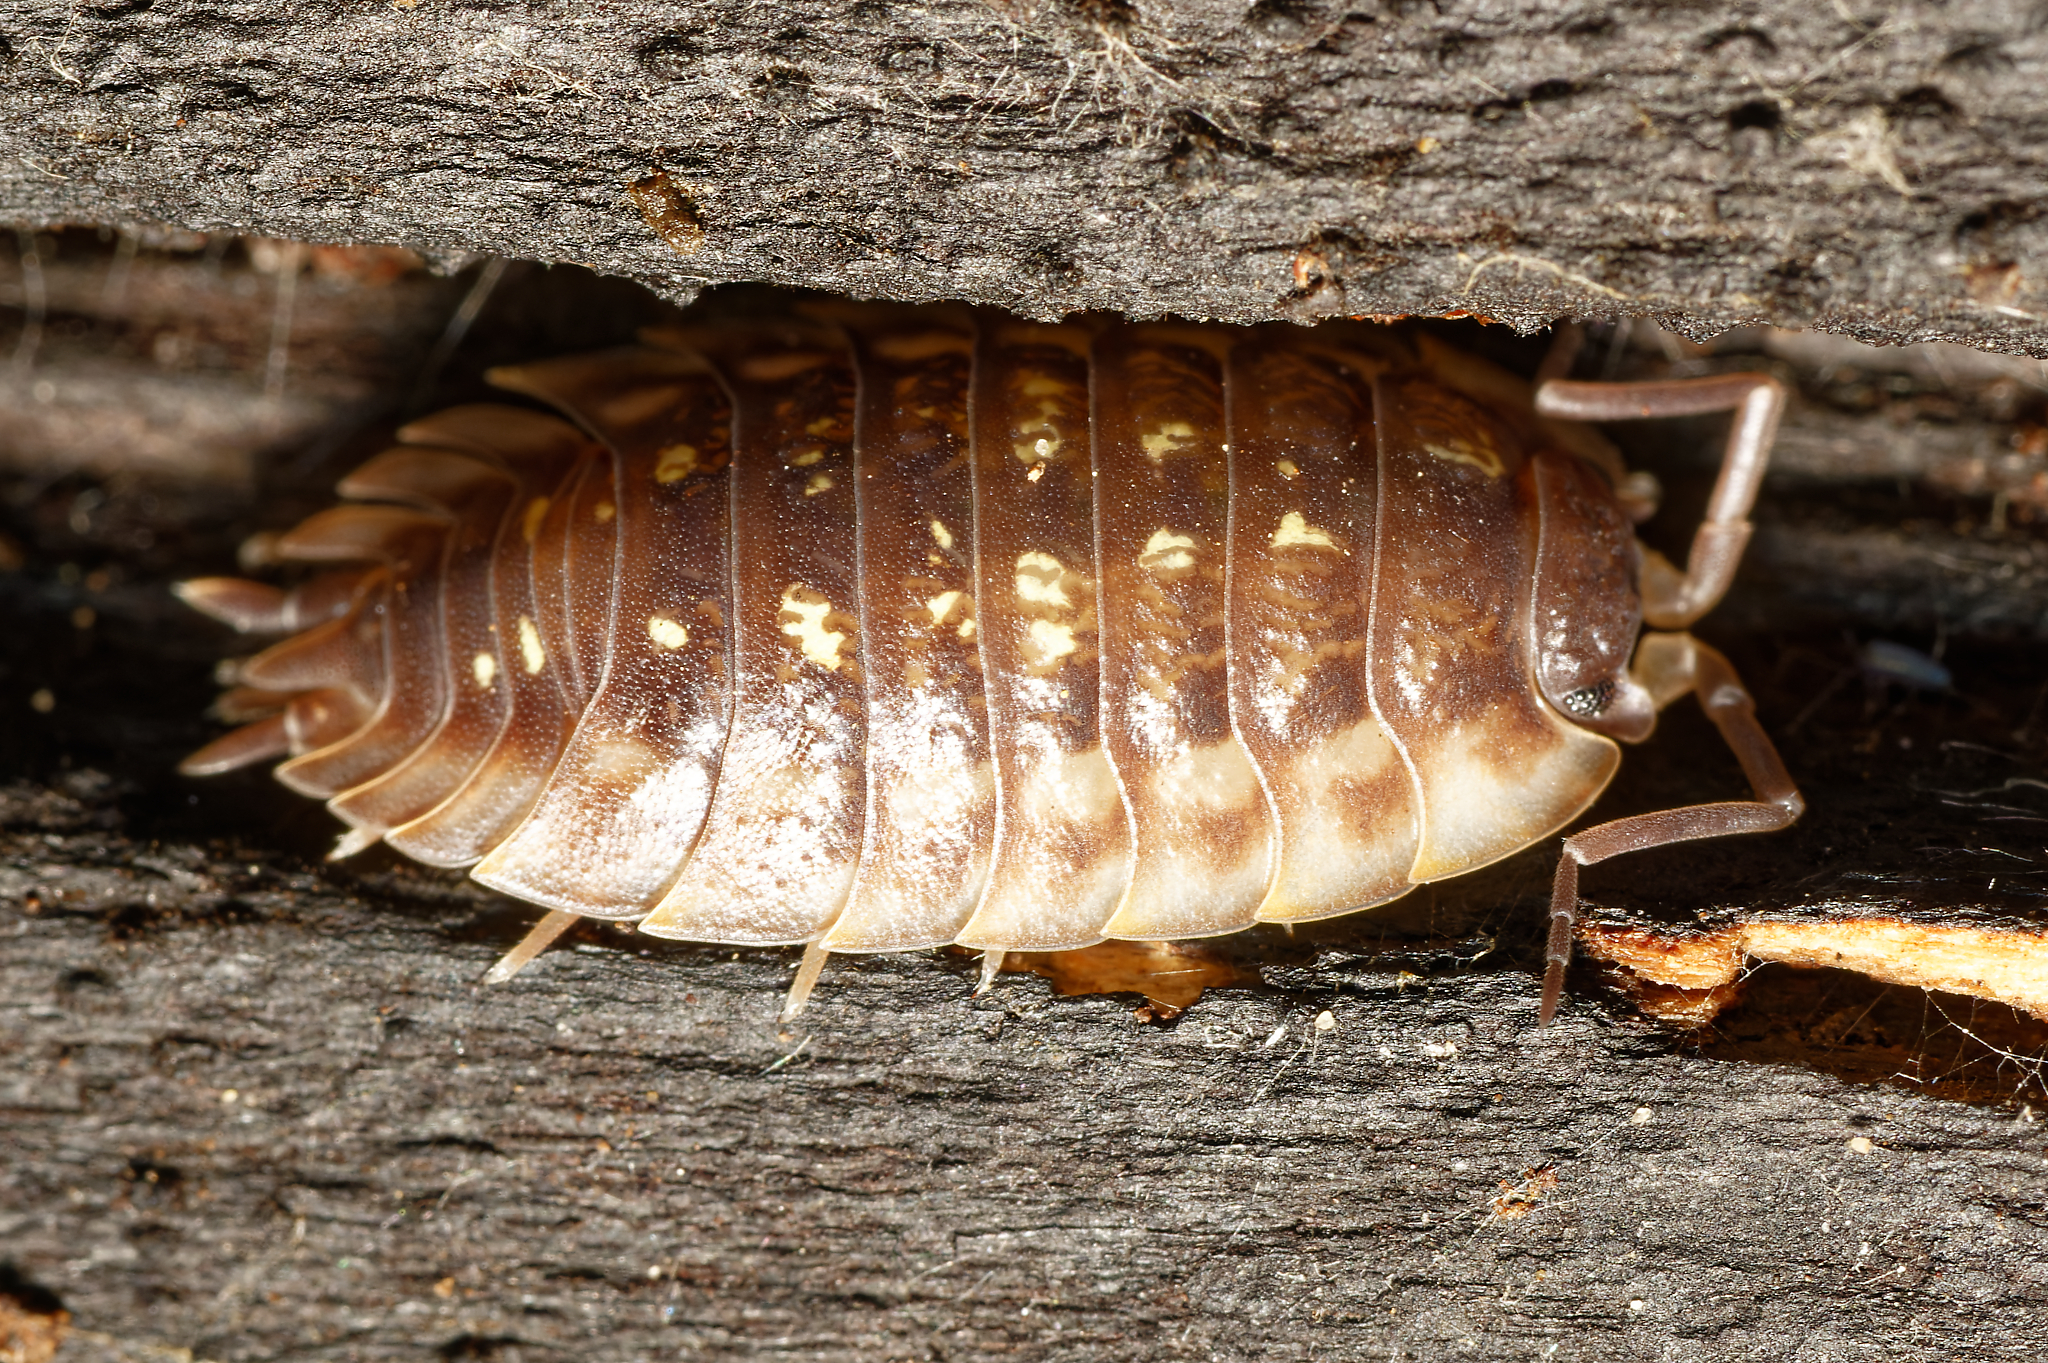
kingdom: Animalia
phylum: Arthropoda
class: Malacostraca
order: Isopoda
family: Oniscidae
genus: Oniscus
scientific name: Oniscus asellus
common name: Common shiny woodlouse
